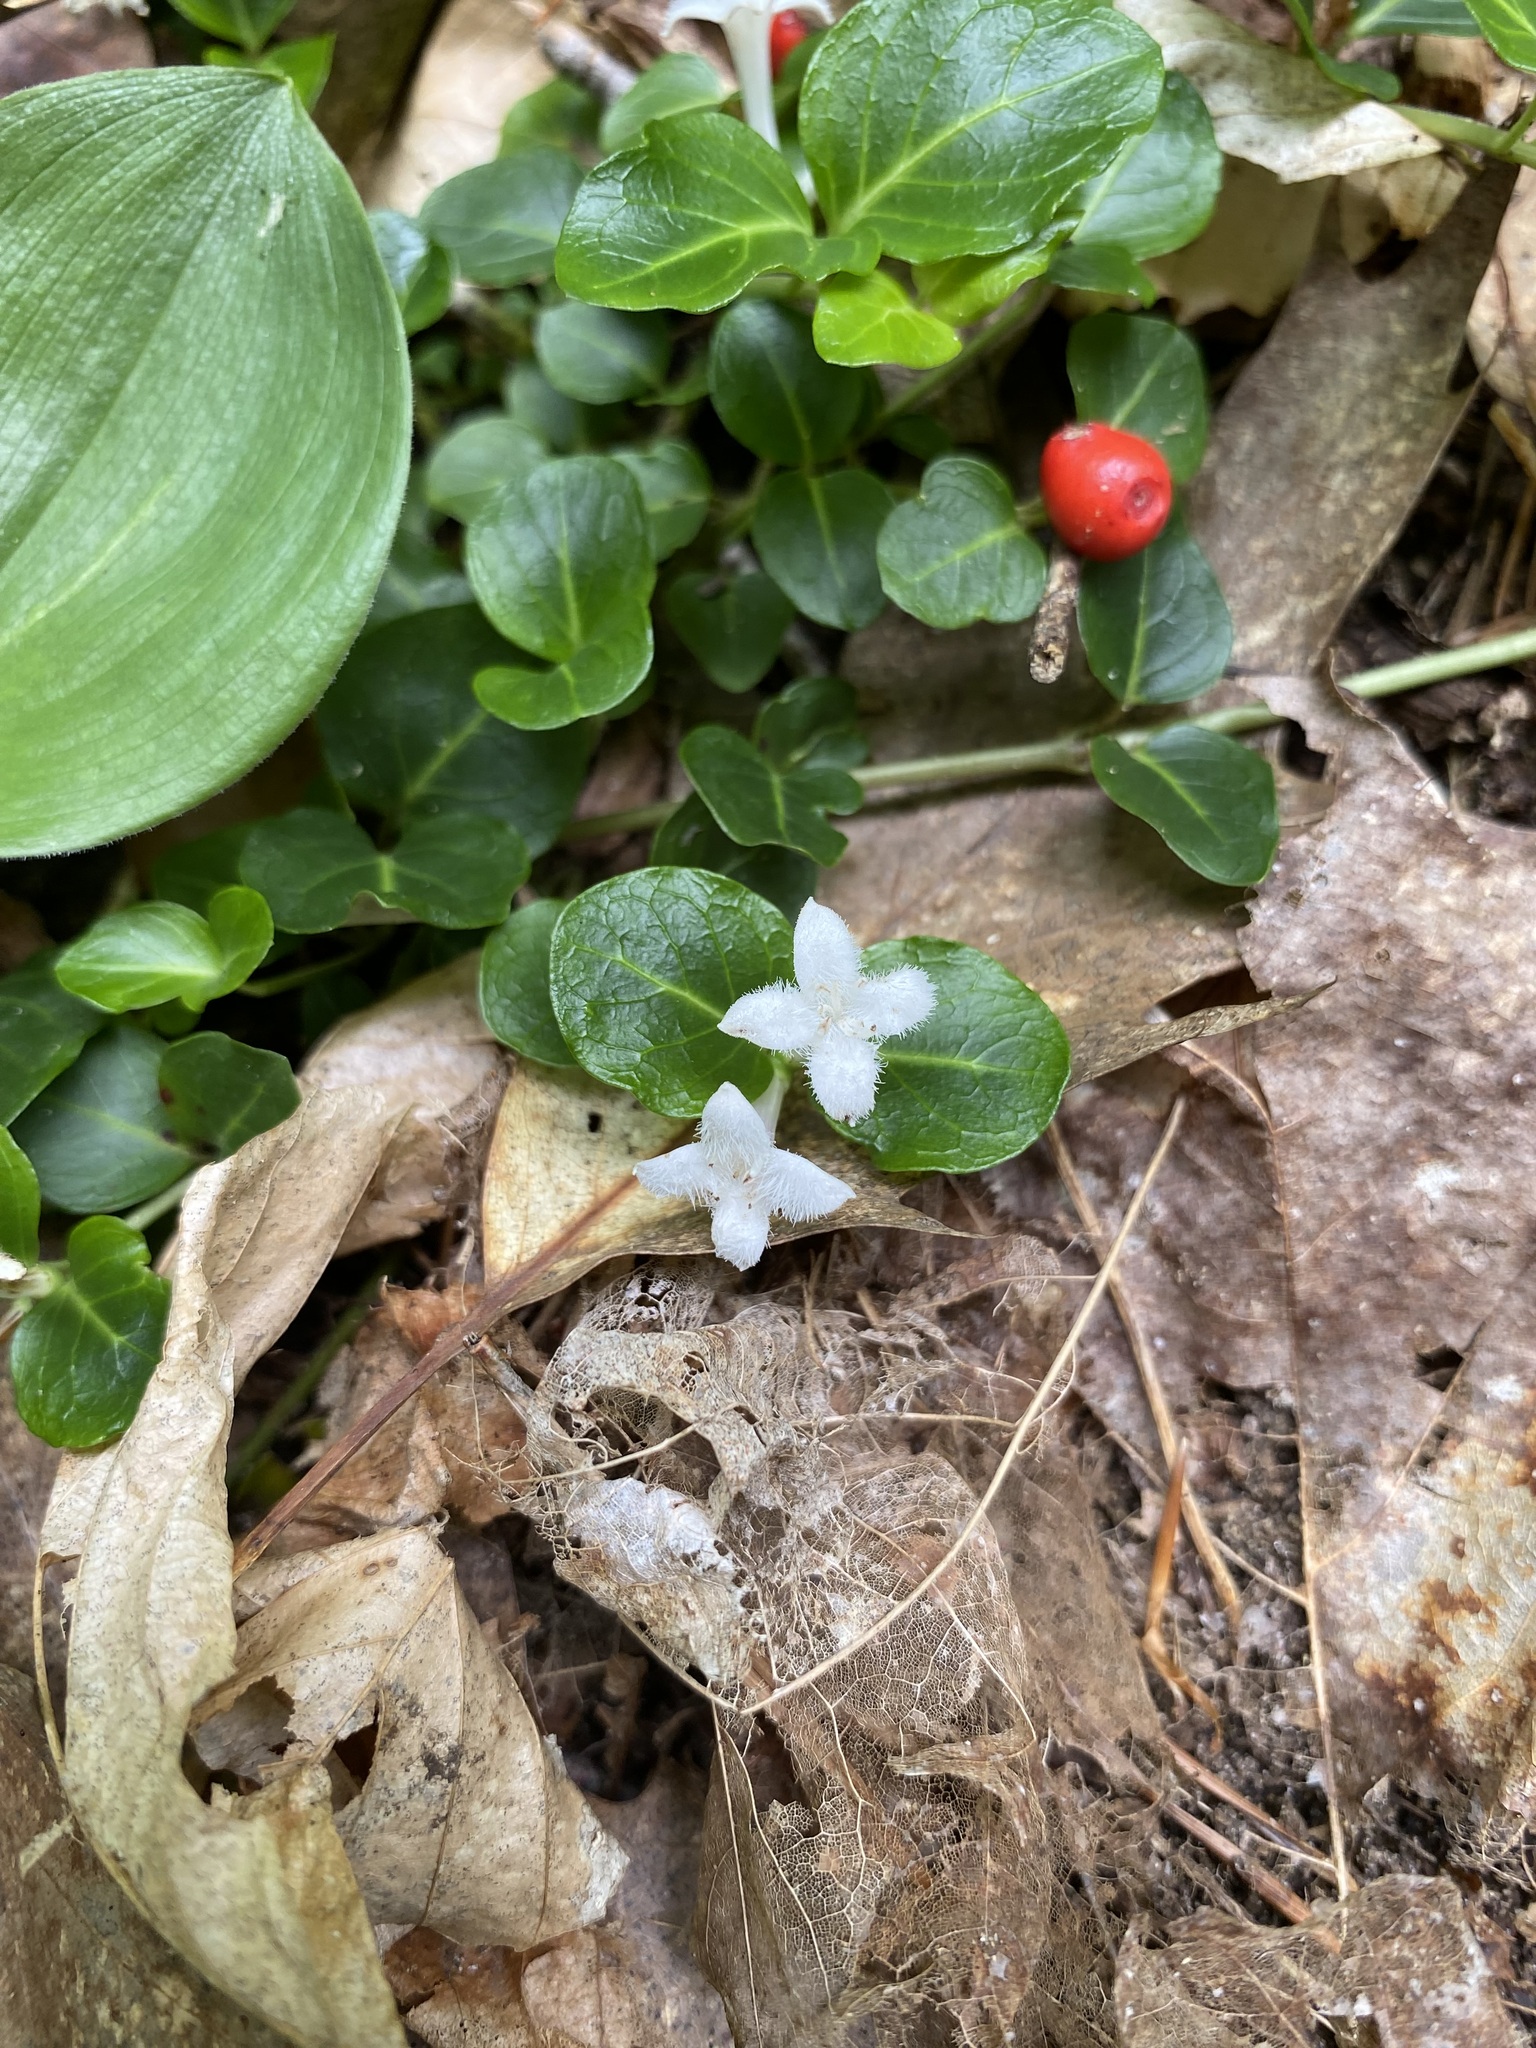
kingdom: Plantae
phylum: Tracheophyta
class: Magnoliopsida
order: Gentianales
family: Rubiaceae
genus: Mitchella
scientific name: Mitchella repens
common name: Partridge-berry
